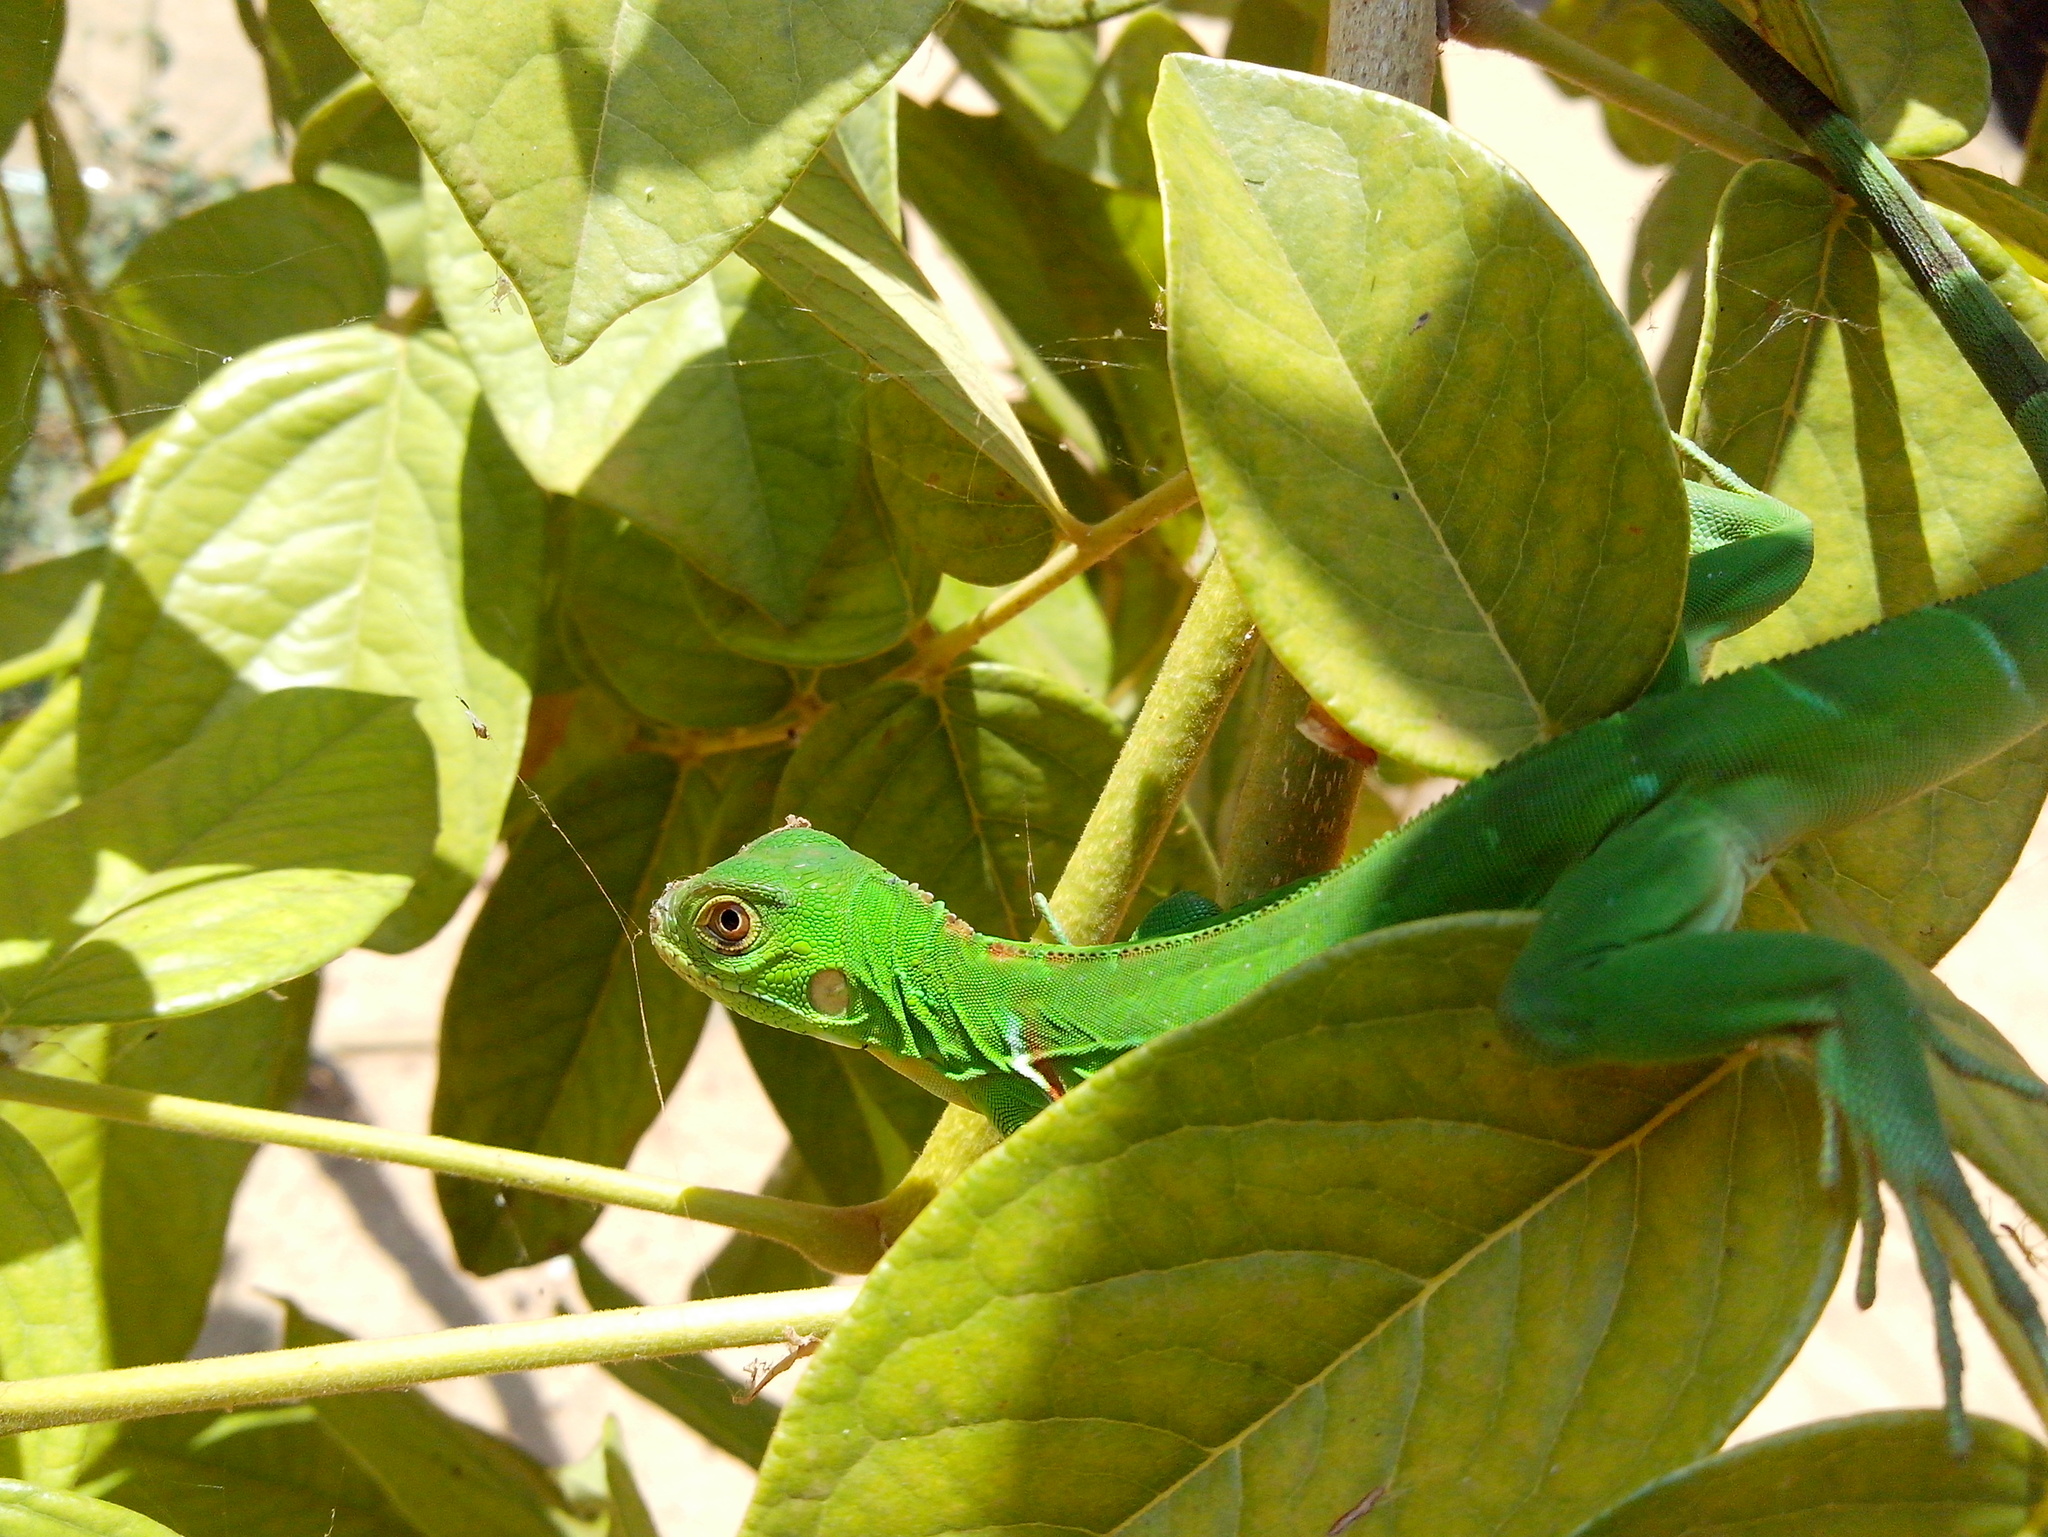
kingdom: Animalia
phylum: Chordata
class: Squamata
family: Iguanidae
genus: Iguana
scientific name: Iguana iguana
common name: Green iguana
